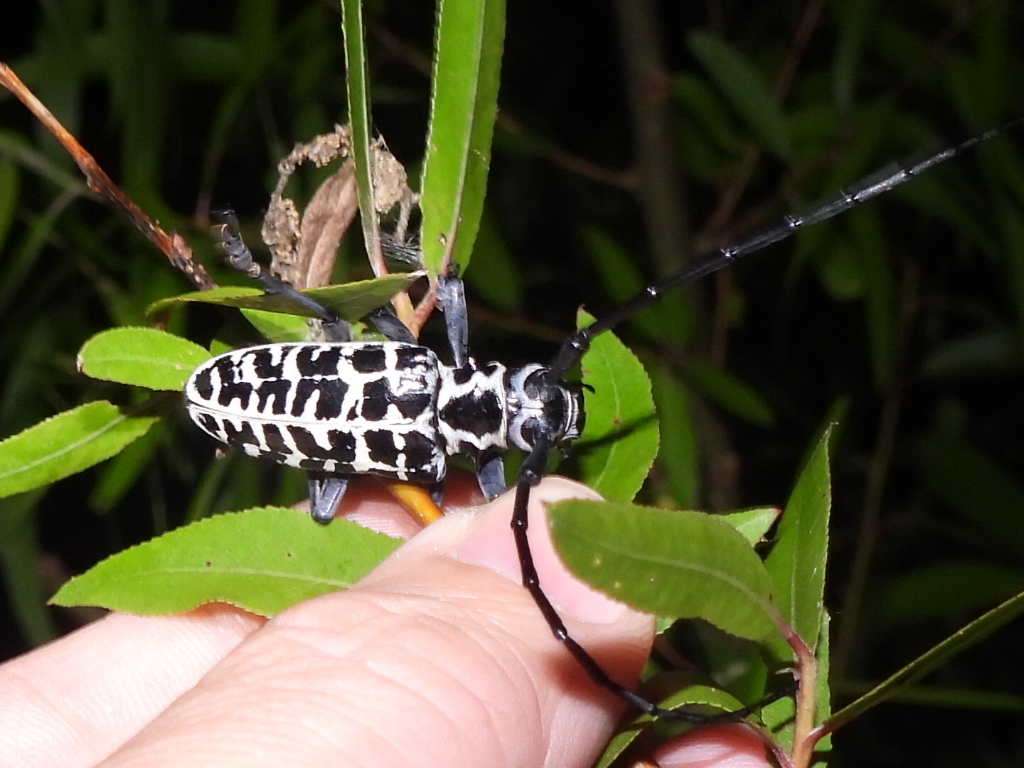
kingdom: Animalia
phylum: Arthropoda
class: Insecta
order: Coleoptera
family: Cerambycidae
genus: Plectrodera
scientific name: Plectrodera scalator
